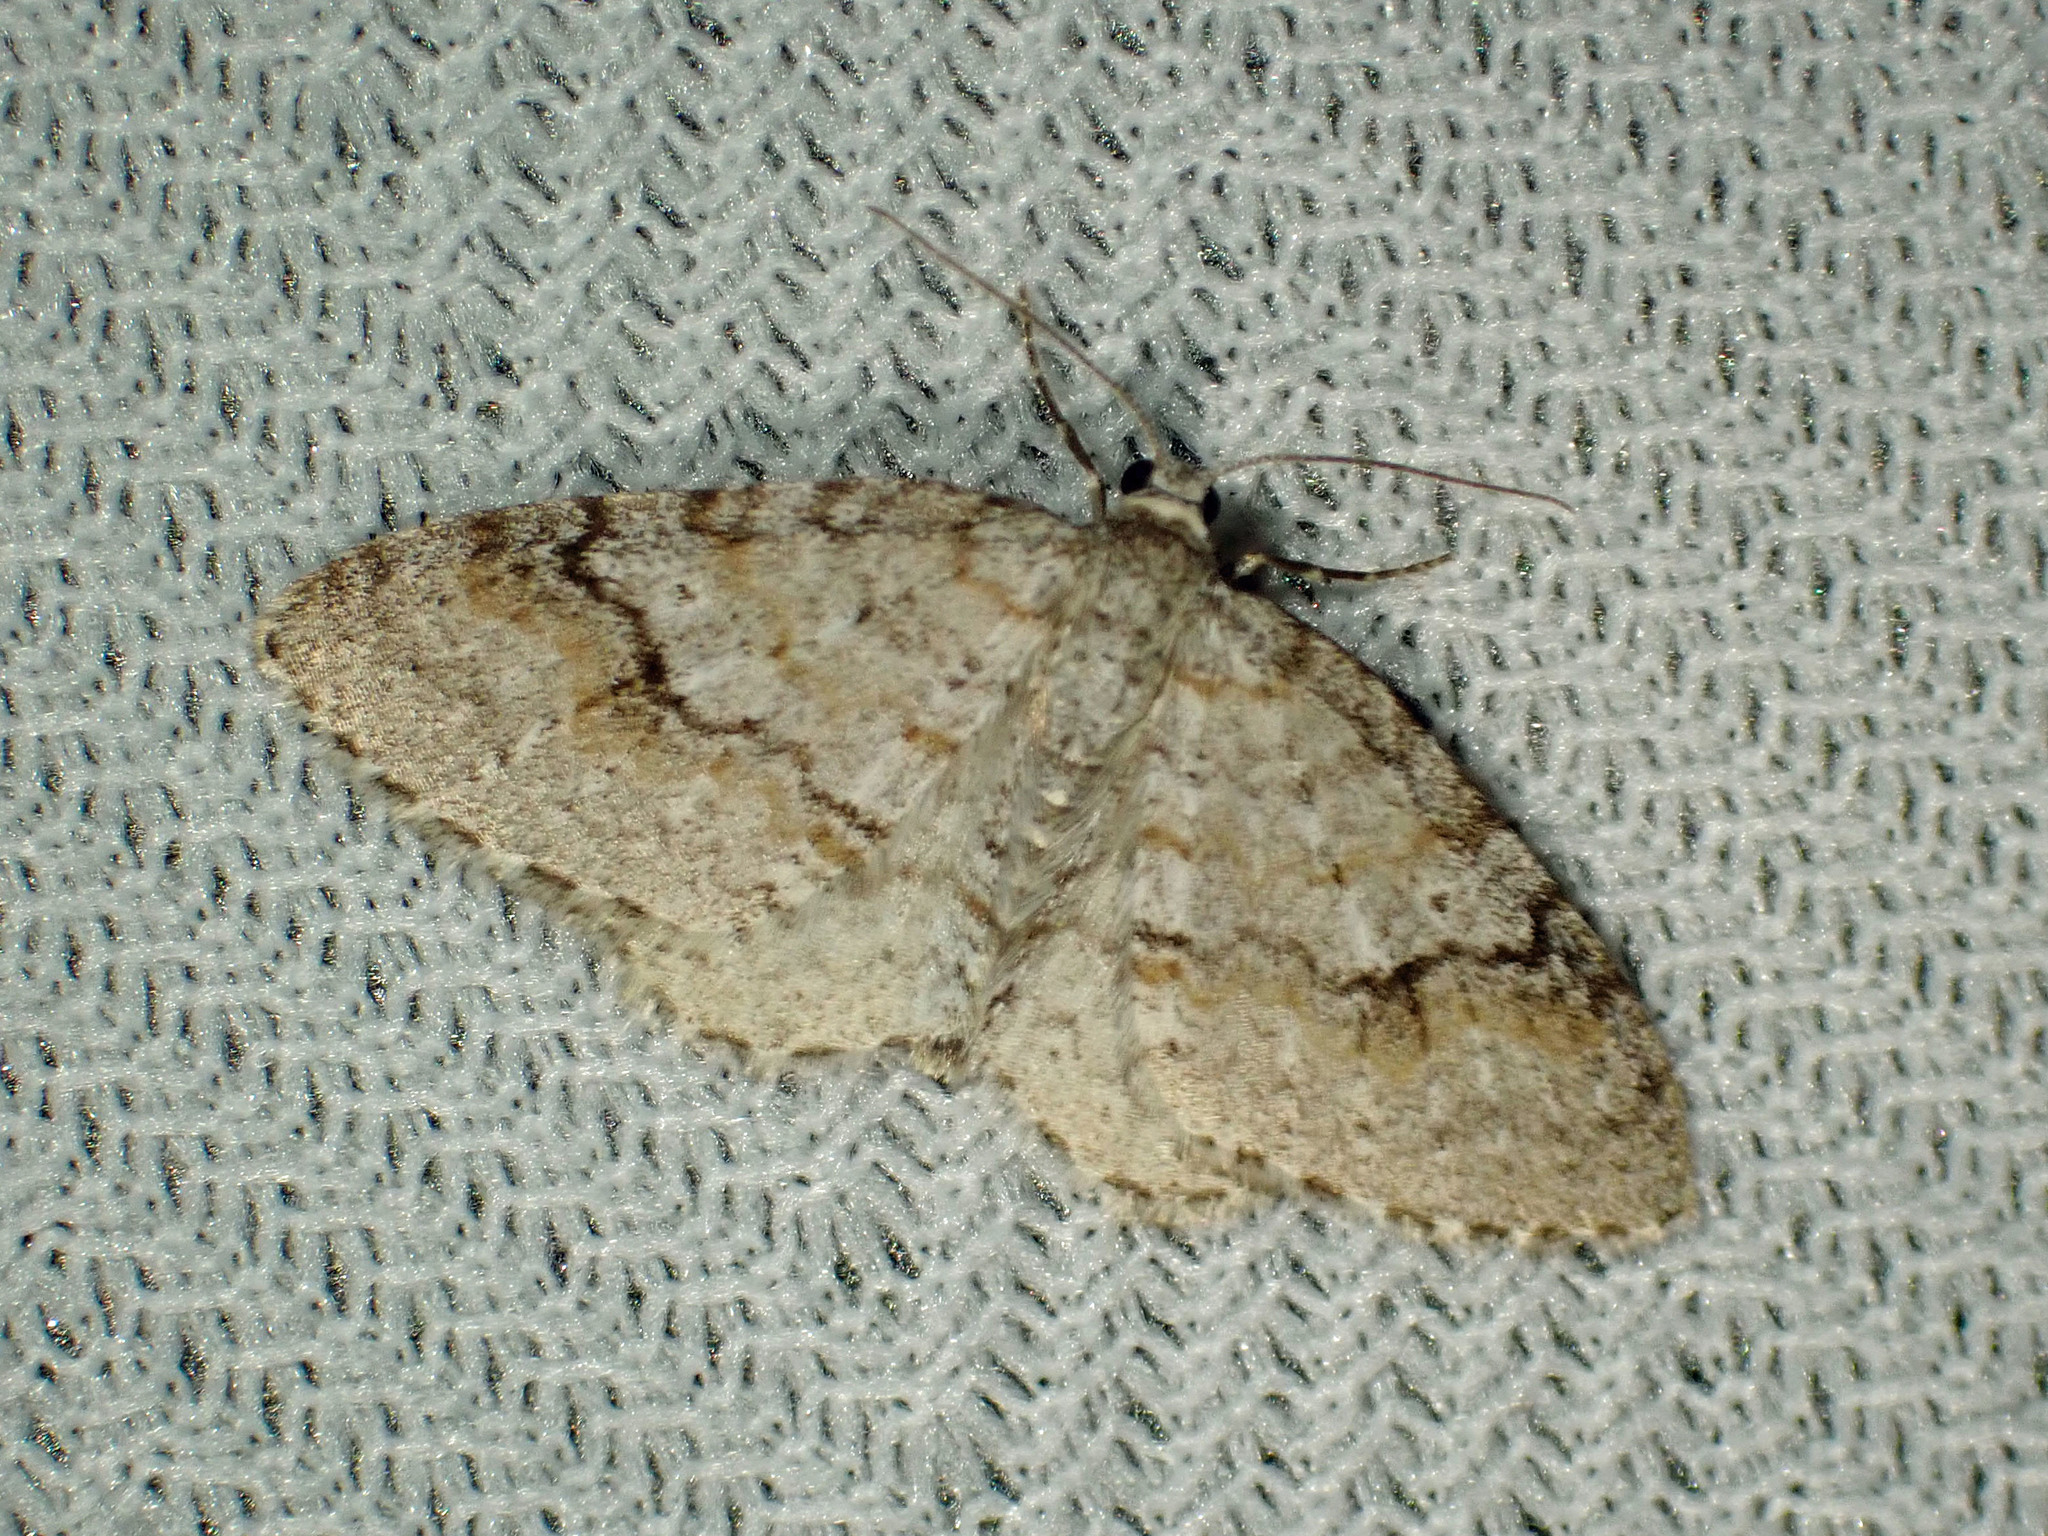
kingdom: Animalia
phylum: Arthropoda
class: Insecta
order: Lepidoptera
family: Geometridae
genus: Venusia
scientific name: Venusia comptaria
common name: Brown-shaded carpet
